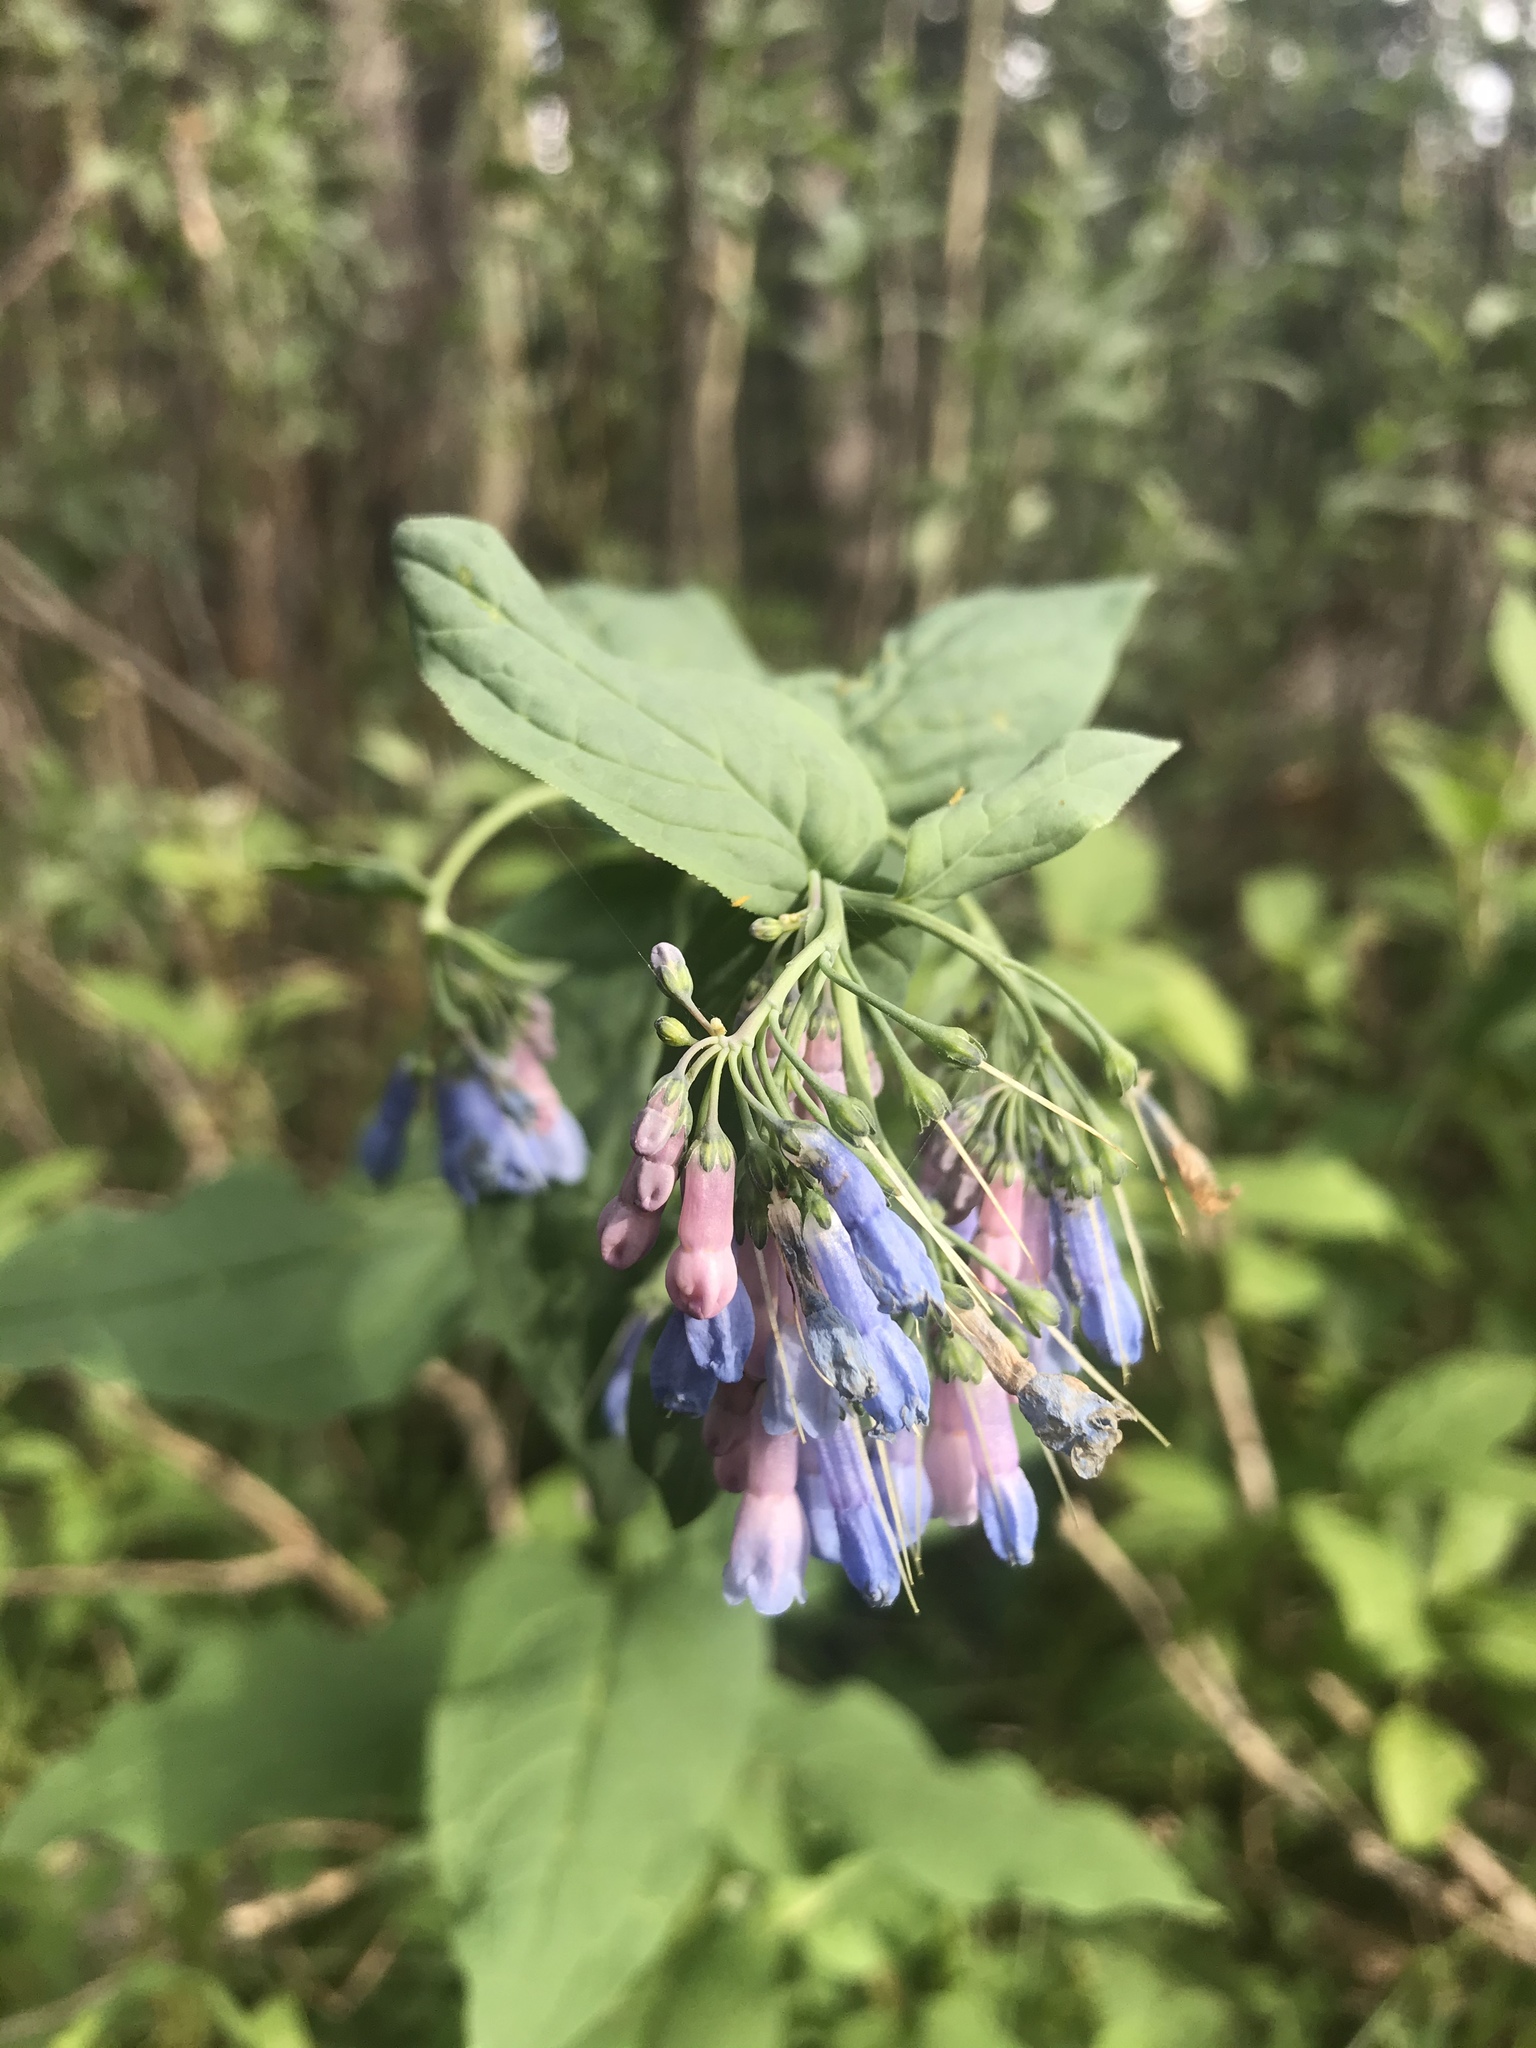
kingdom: Plantae
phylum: Tracheophyta
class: Magnoliopsida
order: Boraginales
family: Boraginaceae
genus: Mertensia
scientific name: Mertensia ciliata
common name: Tall chiming-bells
